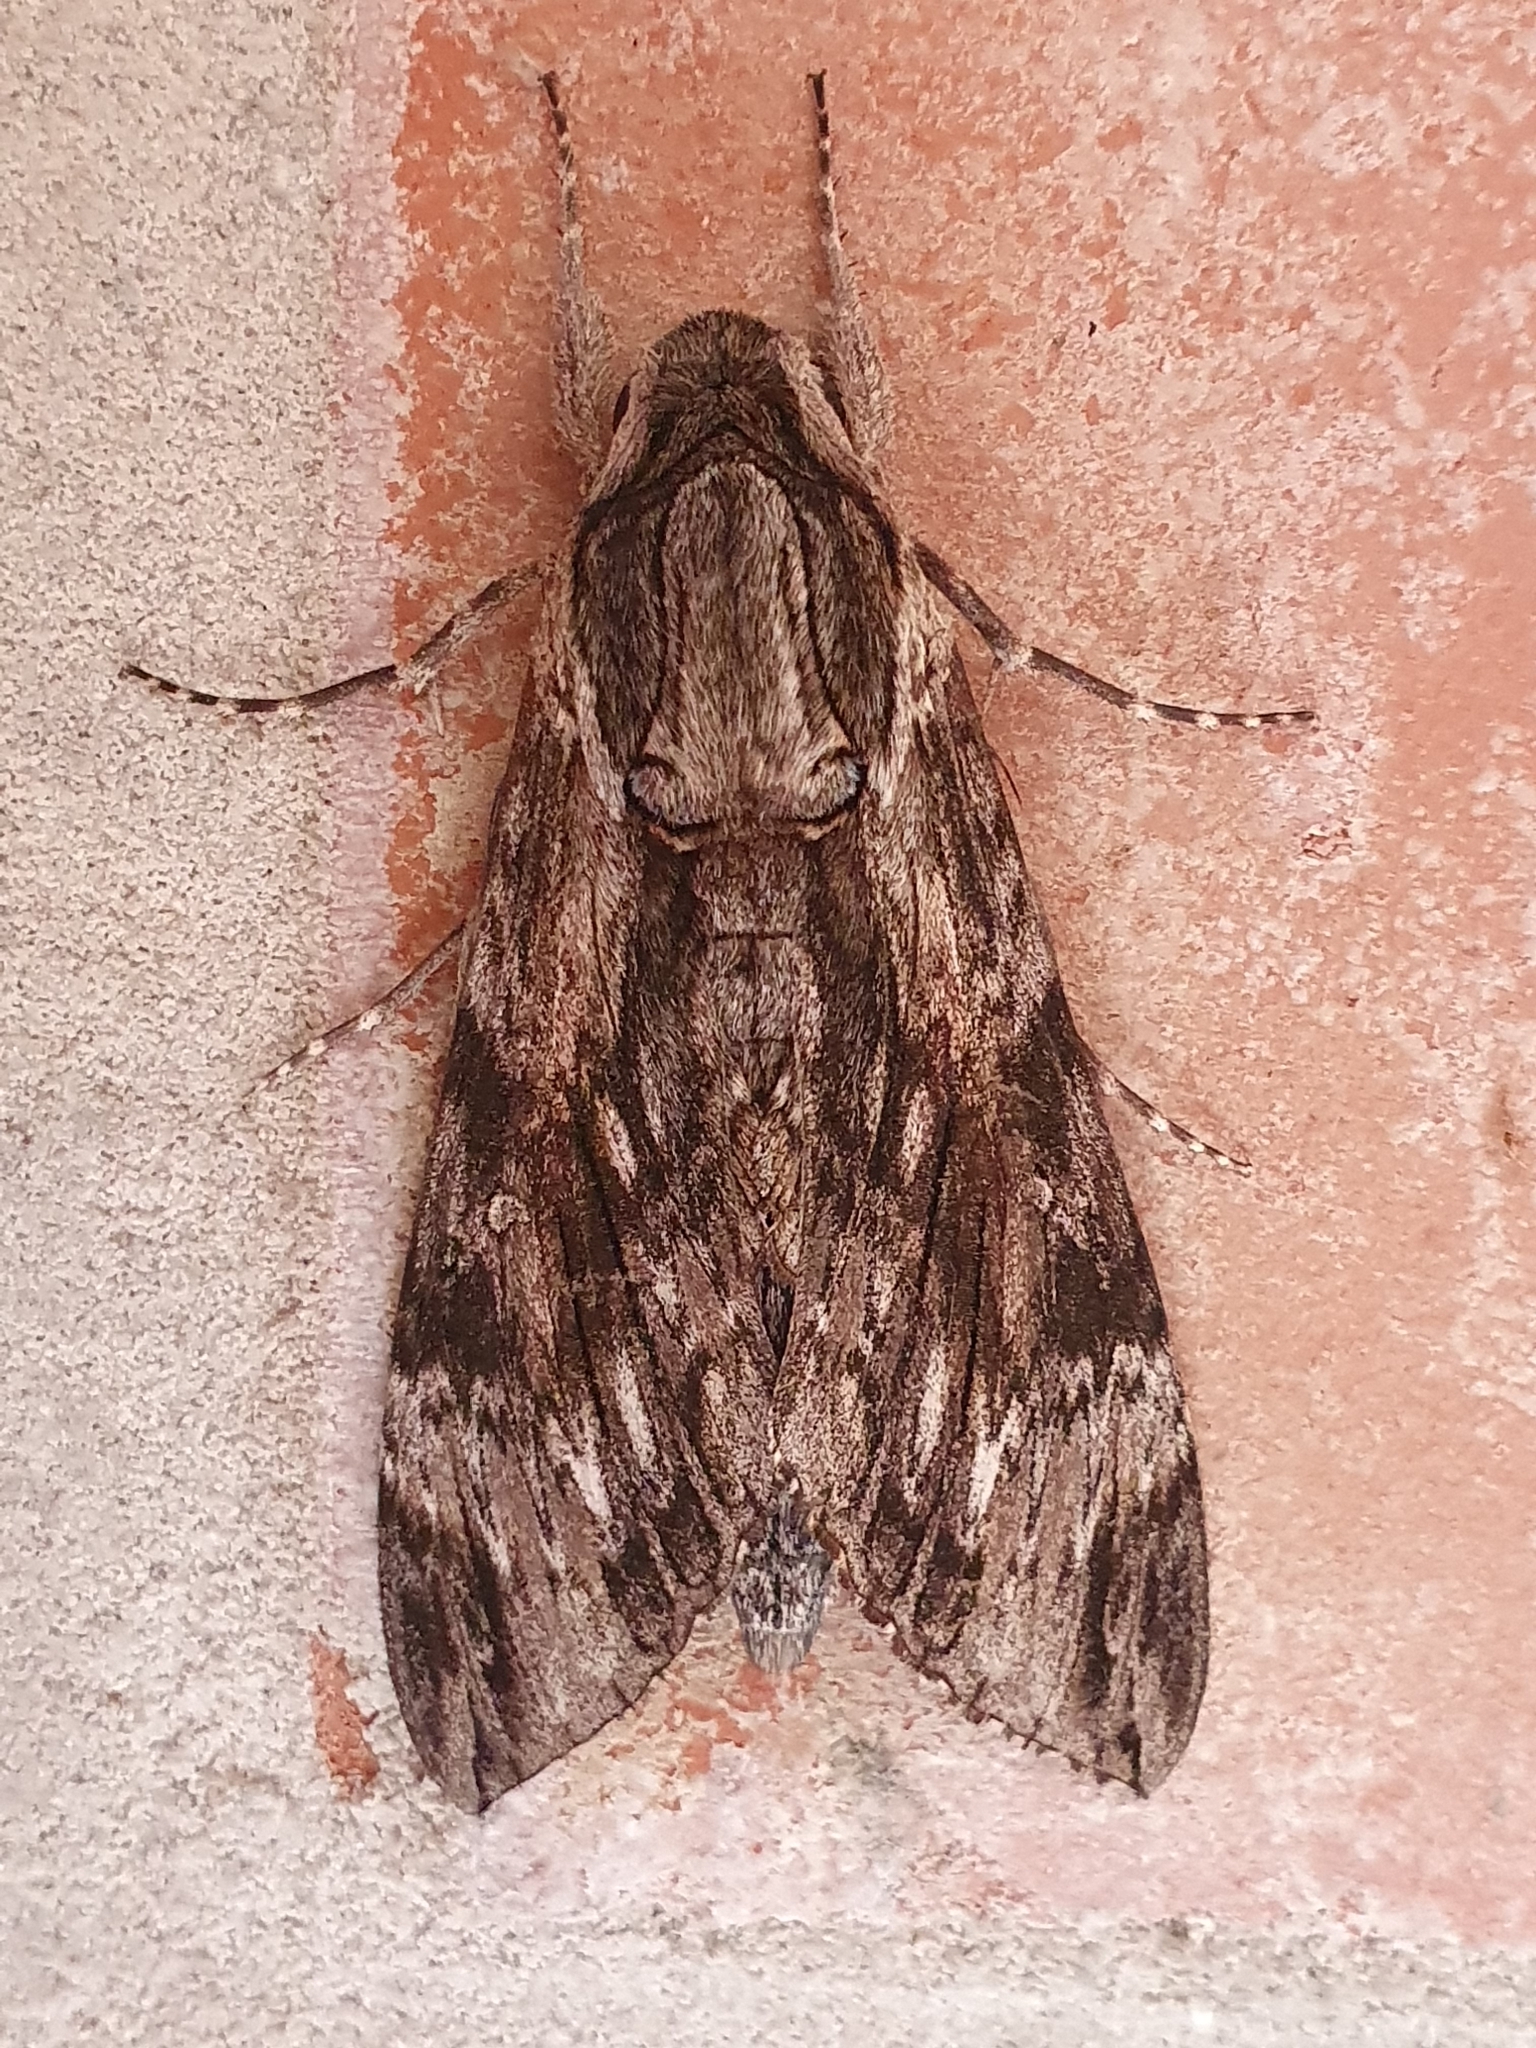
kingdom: Animalia
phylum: Arthropoda
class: Insecta
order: Lepidoptera
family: Sphingidae
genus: Agrius
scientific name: Agrius convolvuli
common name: Convolvulus hawkmoth
